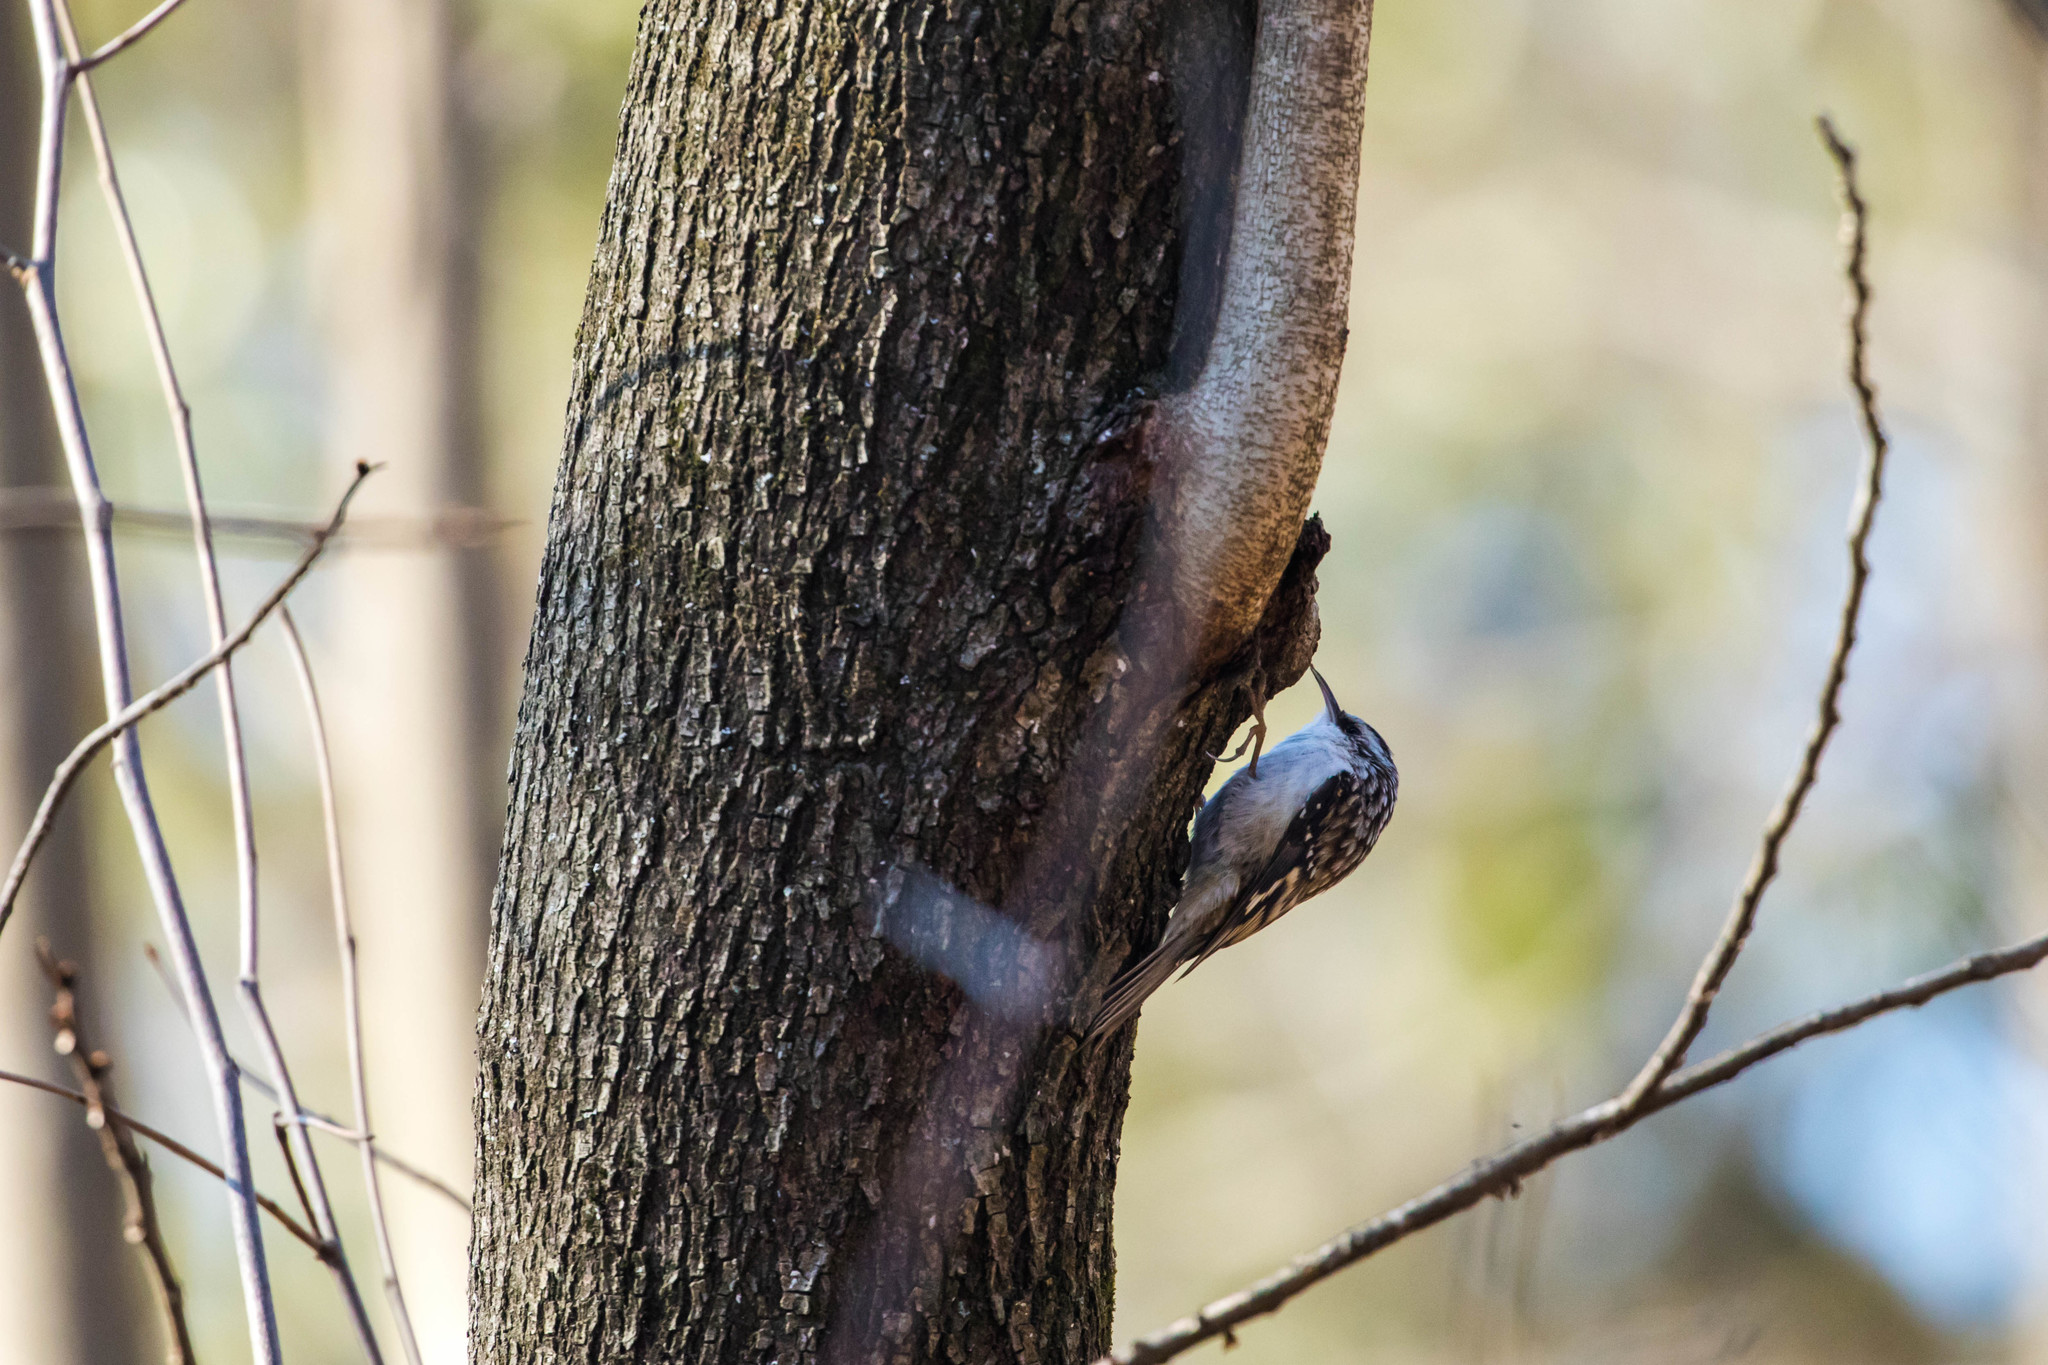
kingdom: Animalia
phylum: Chordata
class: Aves
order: Passeriformes
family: Certhiidae
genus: Certhia
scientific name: Certhia americana
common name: Brown creeper
